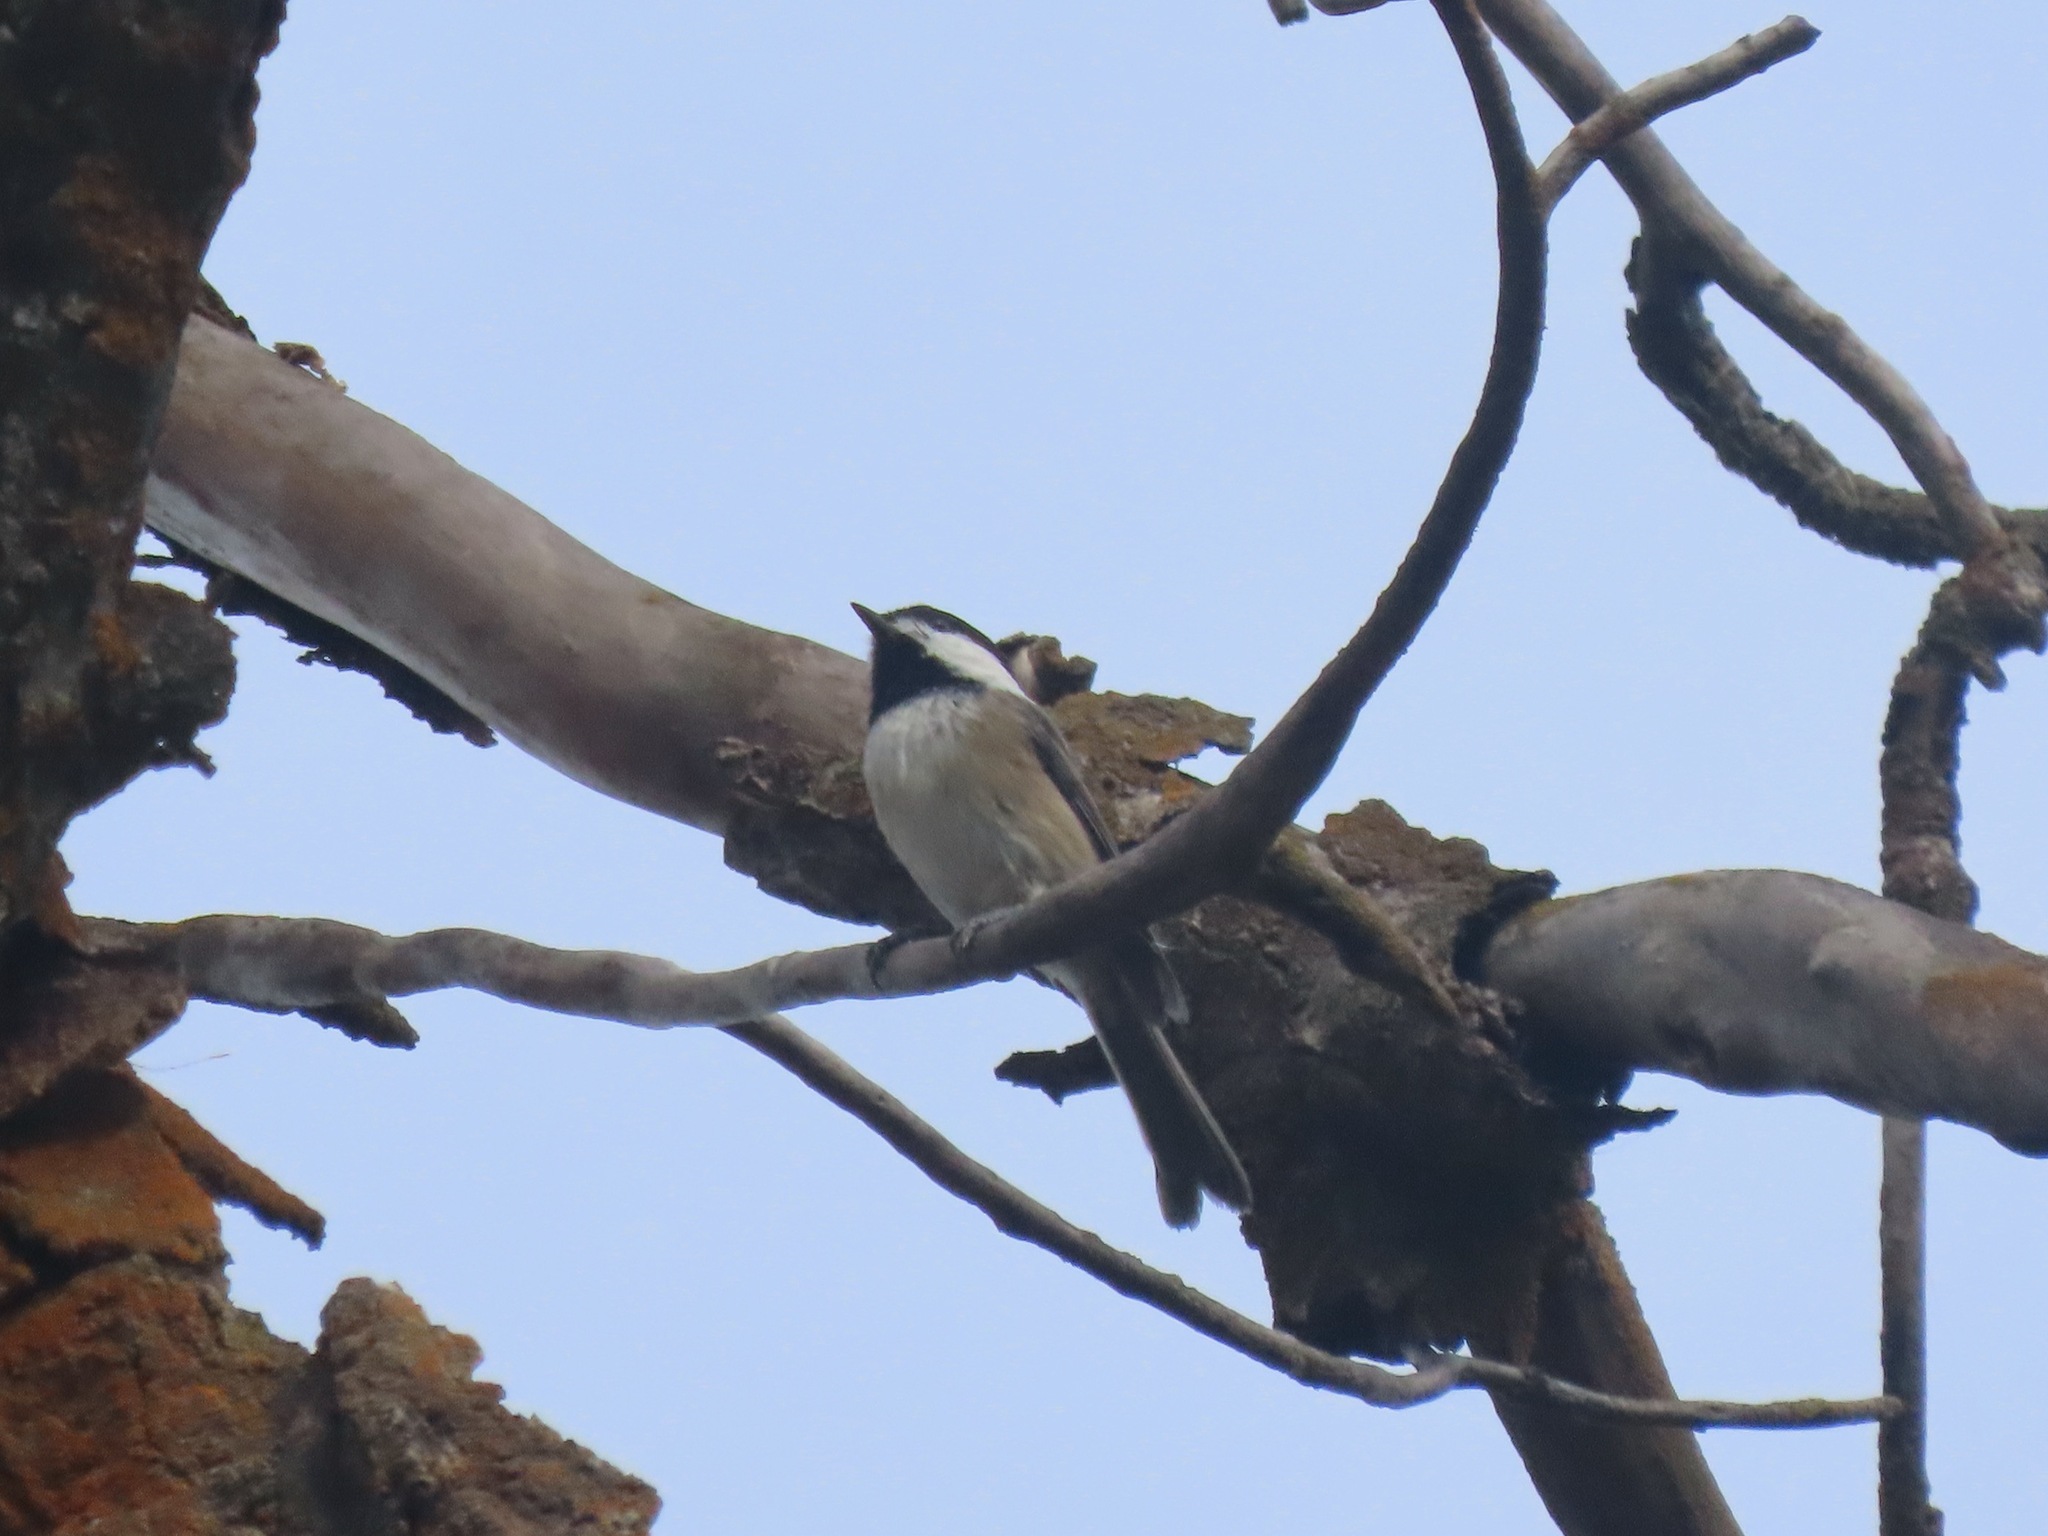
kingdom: Animalia
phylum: Chordata
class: Aves
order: Passeriformes
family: Paridae
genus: Poecile
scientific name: Poecile atricapillus
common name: Black-capped chickadee
